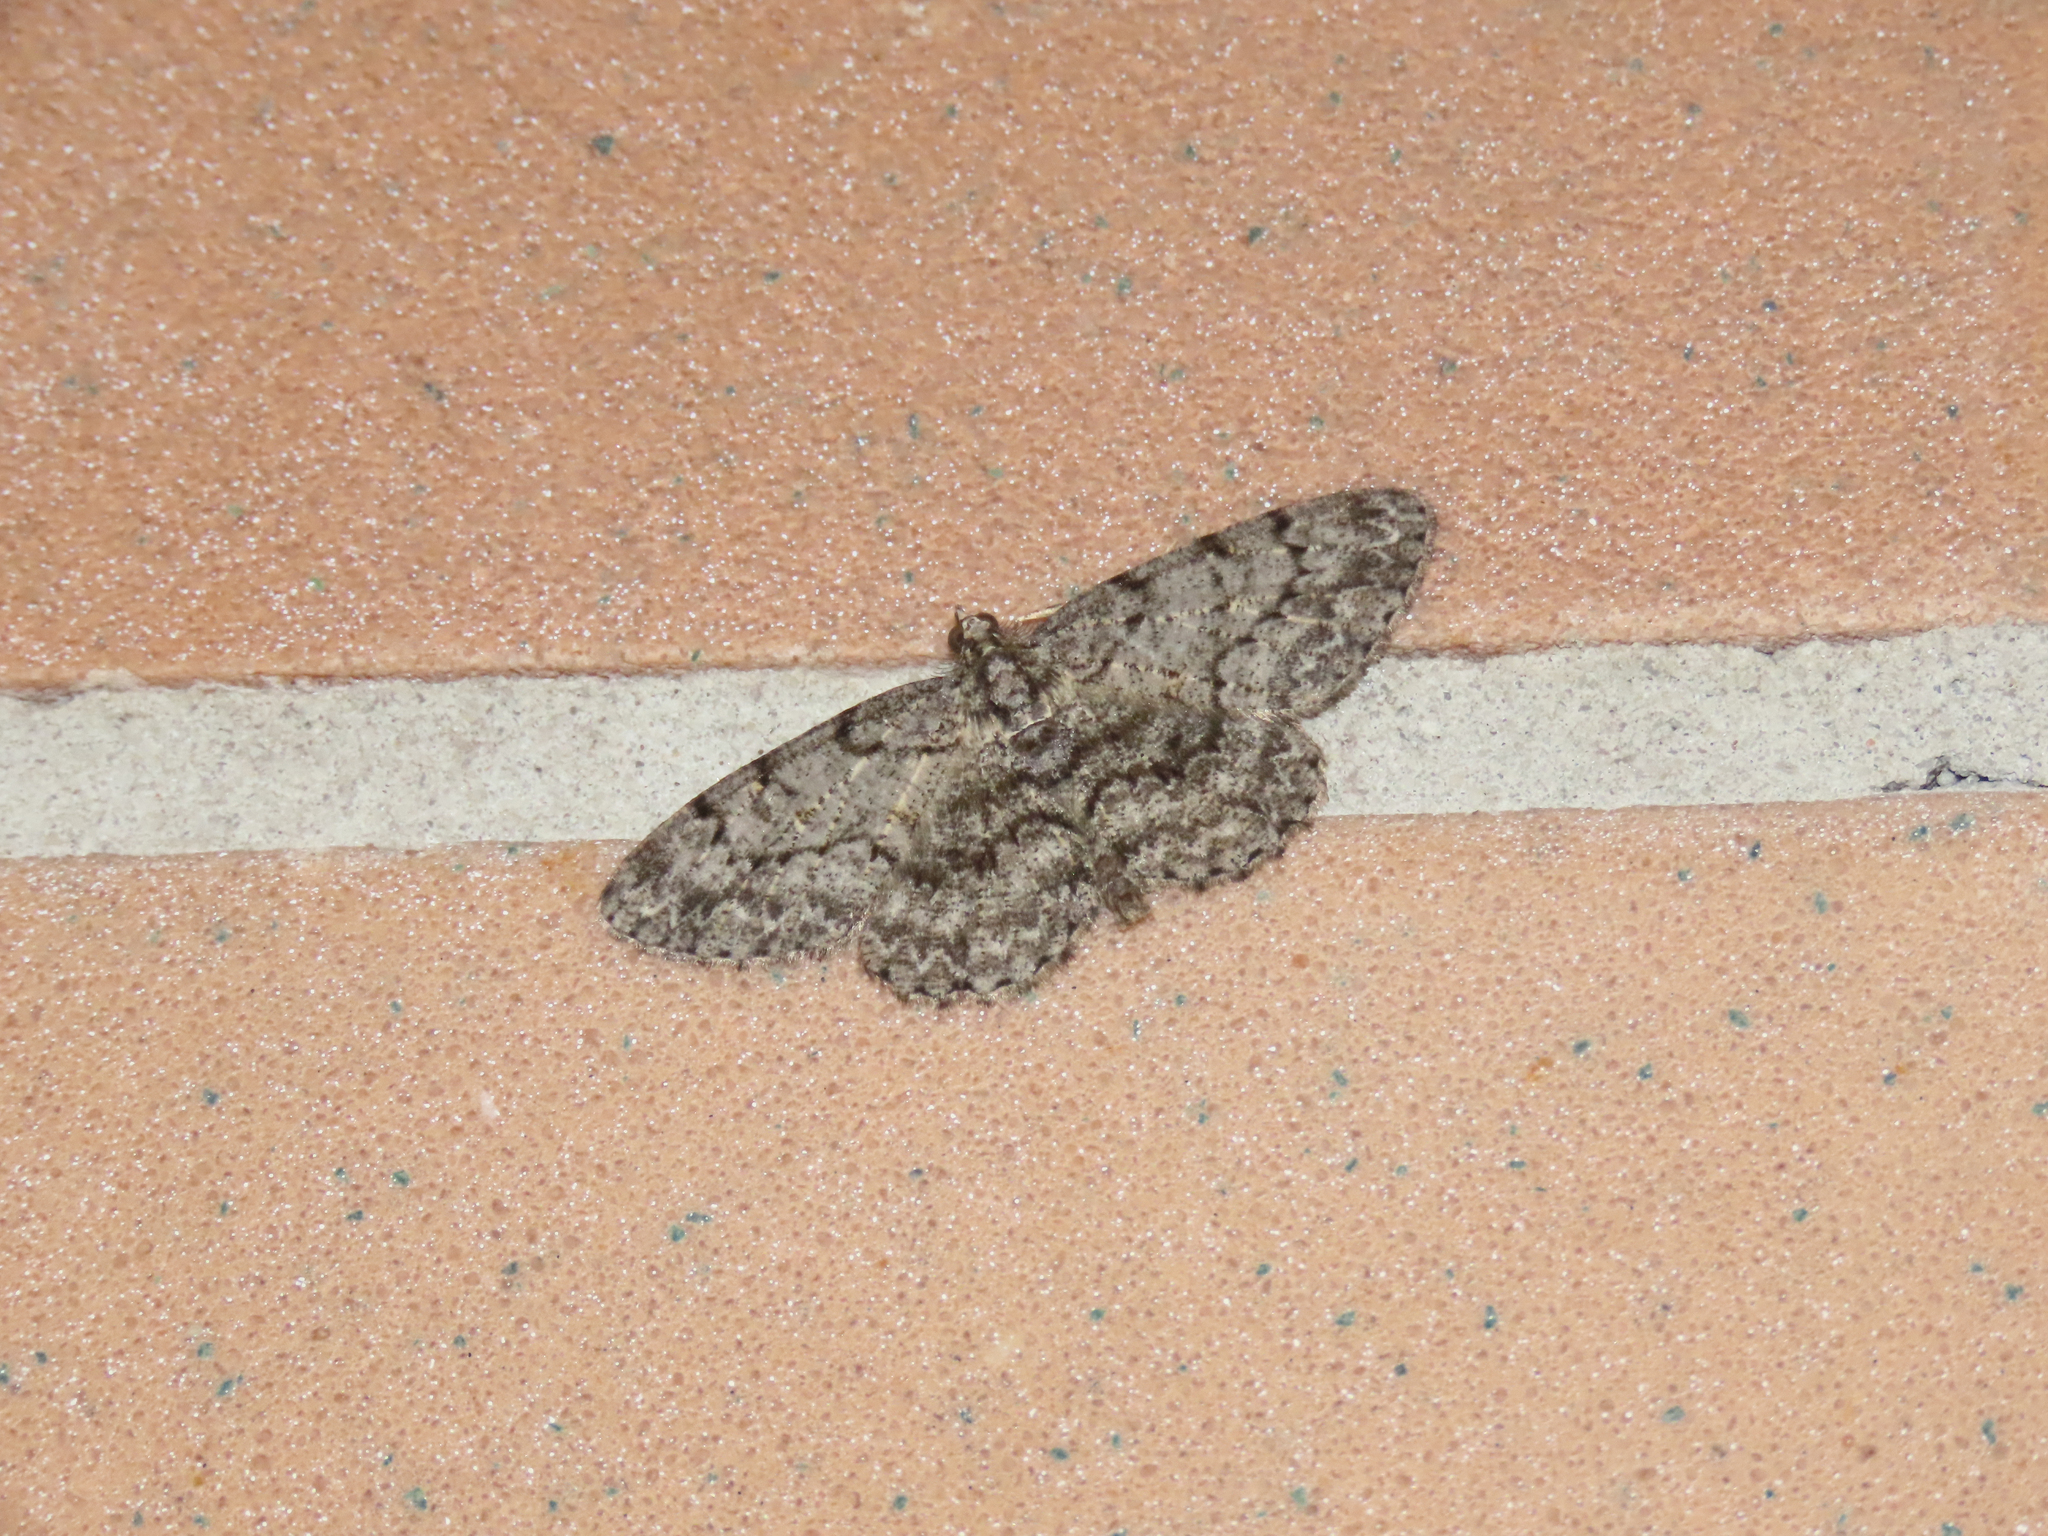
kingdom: Animalia
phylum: Arthropoda
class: Insecta
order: Lepidoptera
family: Geometridae
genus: Protoboarmia
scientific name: Protoboarmia porcelaria
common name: Porcelain gray
